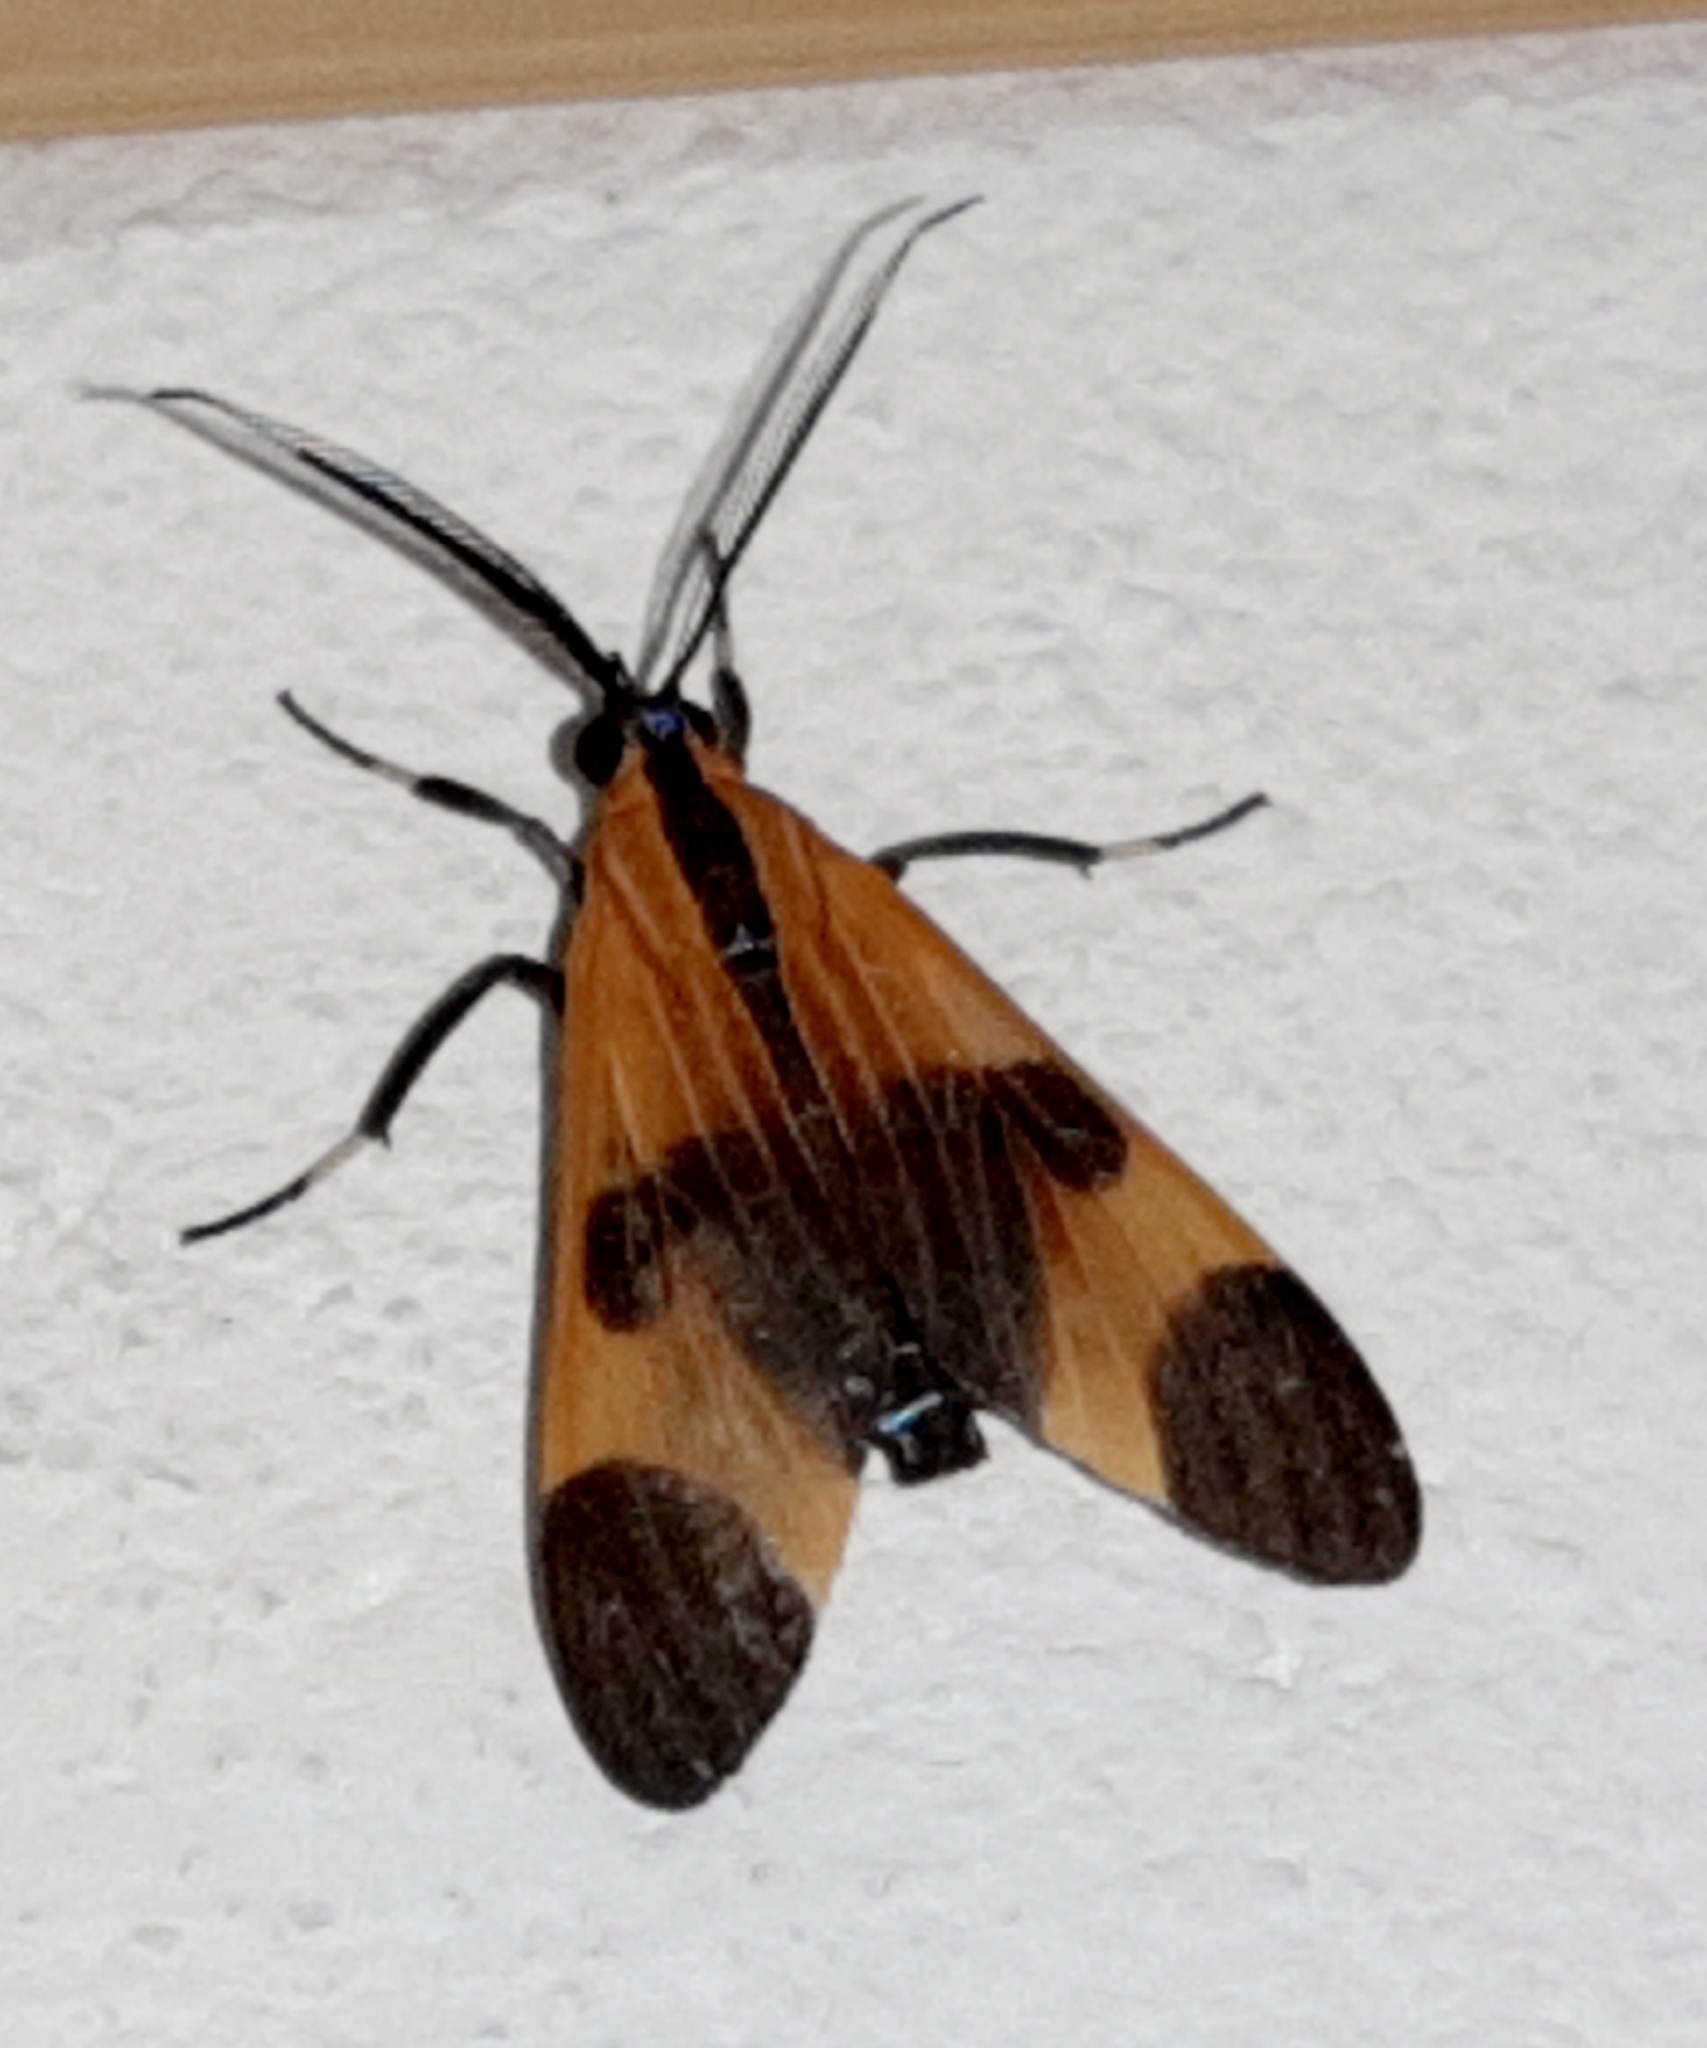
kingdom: Animalia
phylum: Arthropoda
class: Insecta
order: Lepidoptera
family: Erebidae
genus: Dycladia
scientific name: Dycladia correbioides
